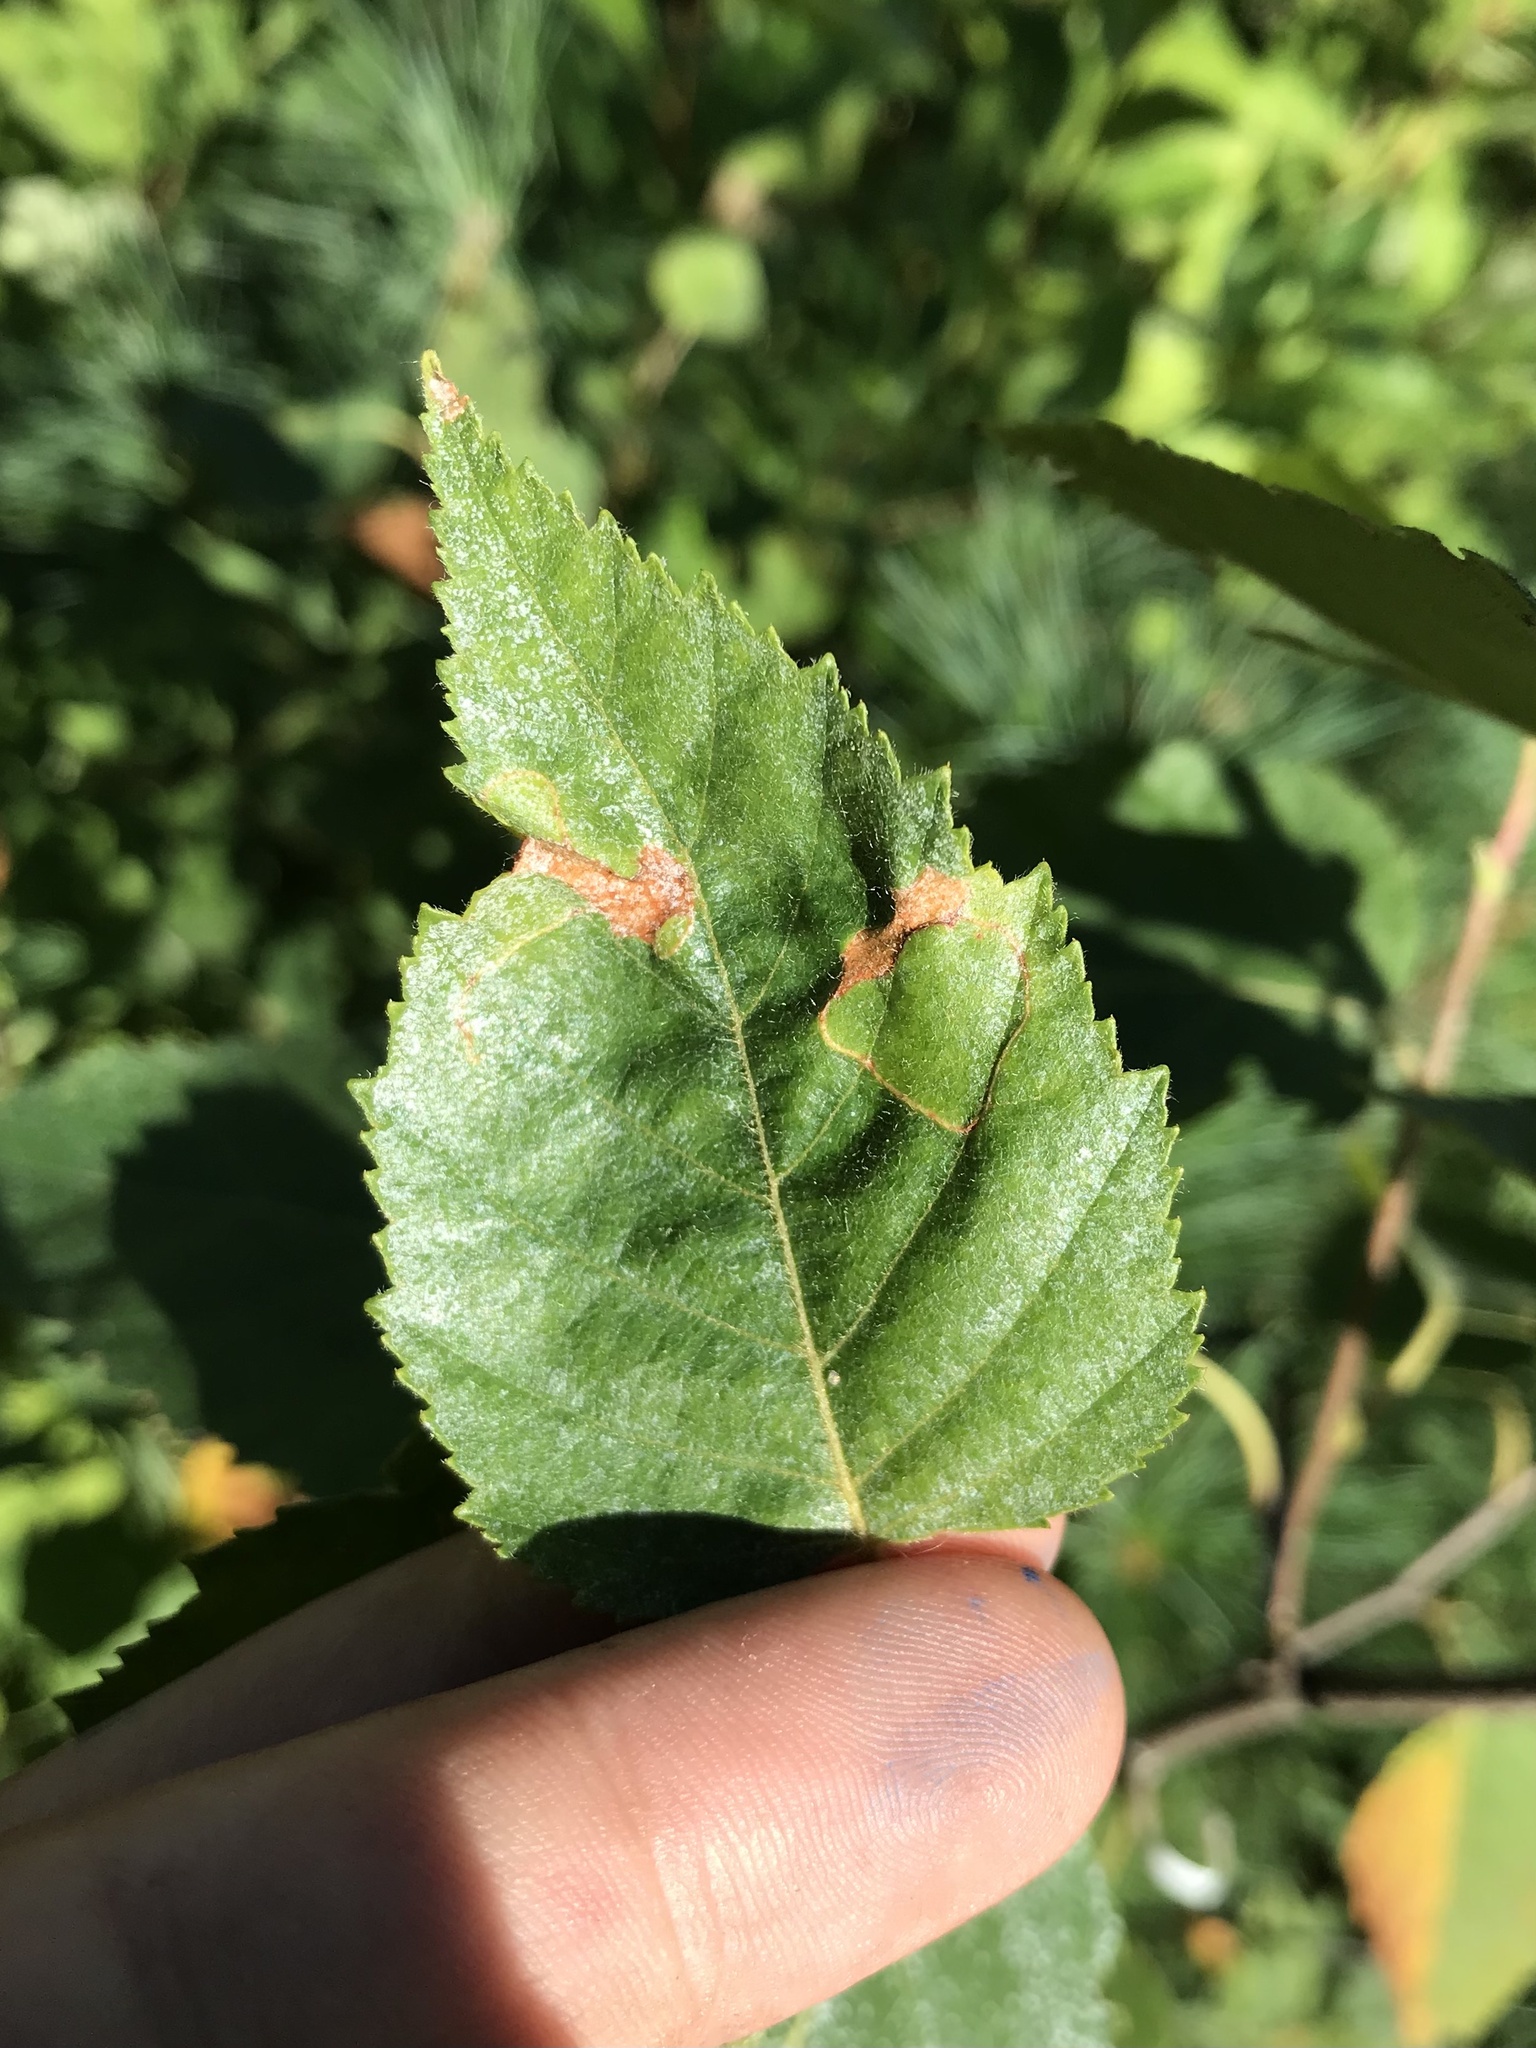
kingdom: Animalia
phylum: Arthropoda
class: Insecta
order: Lepidoptera
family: Lyonetiidae
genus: Lyonetia
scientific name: Lyonetia prunifoliella
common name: Striped bent-wing
